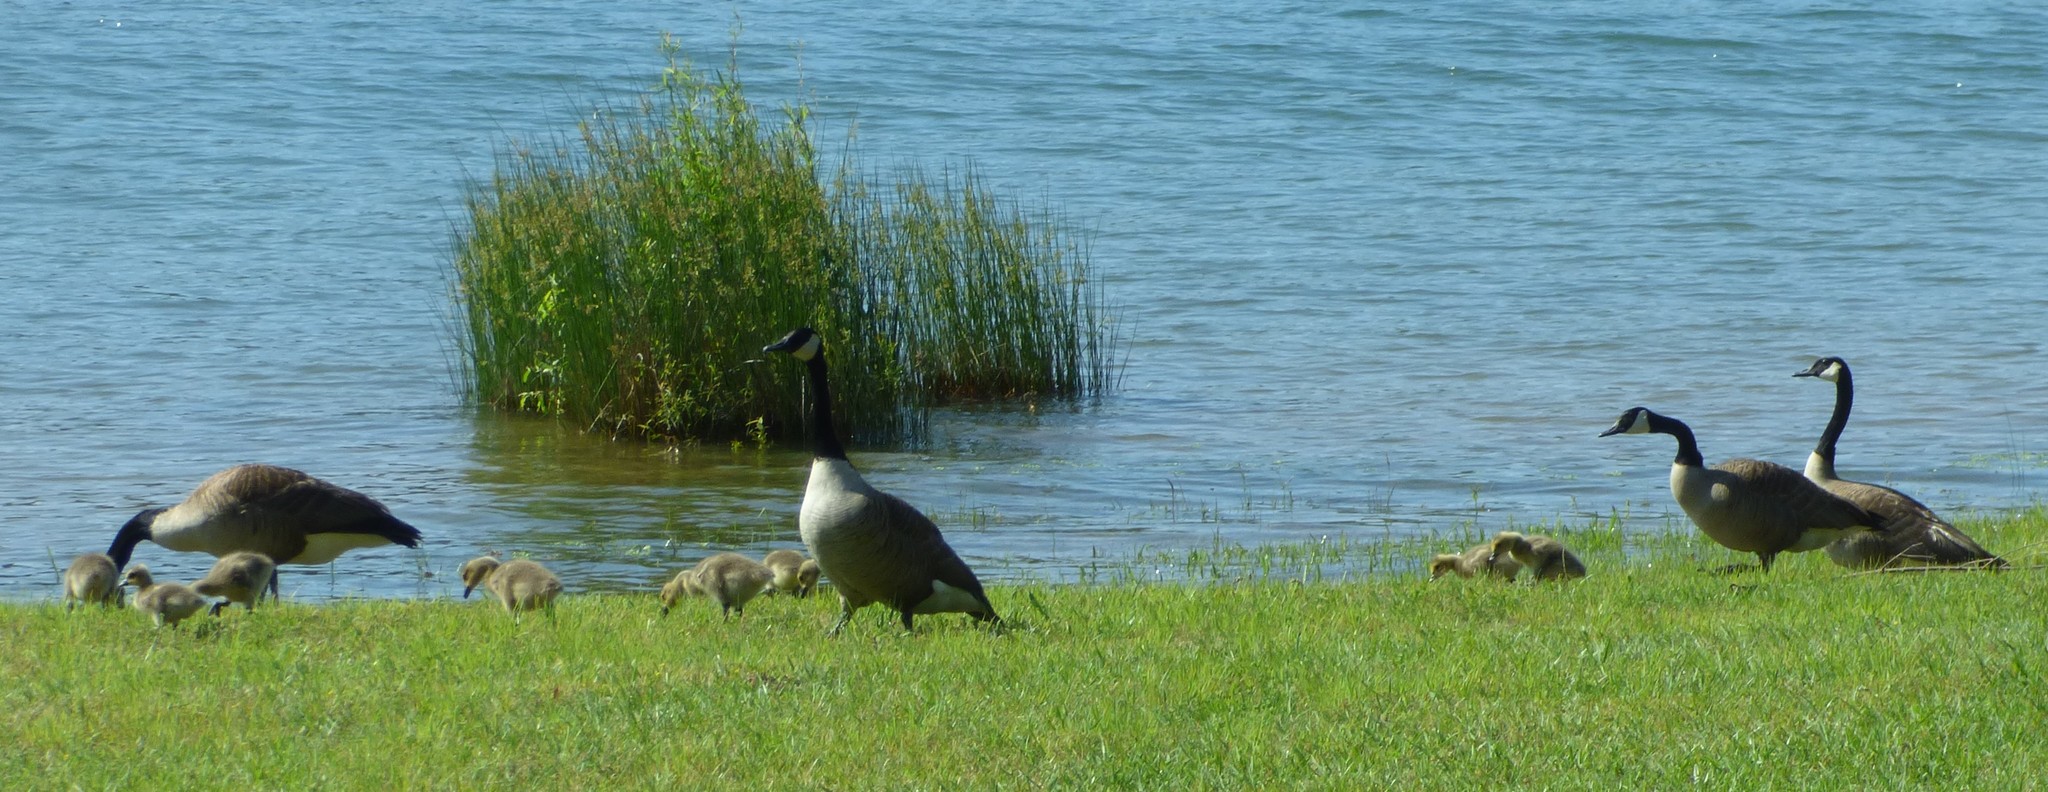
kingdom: Animalia
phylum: Chordata
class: Aves
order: Anseriformes
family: Anatidae
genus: Branta
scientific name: Branta canadensis
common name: Canada goose
